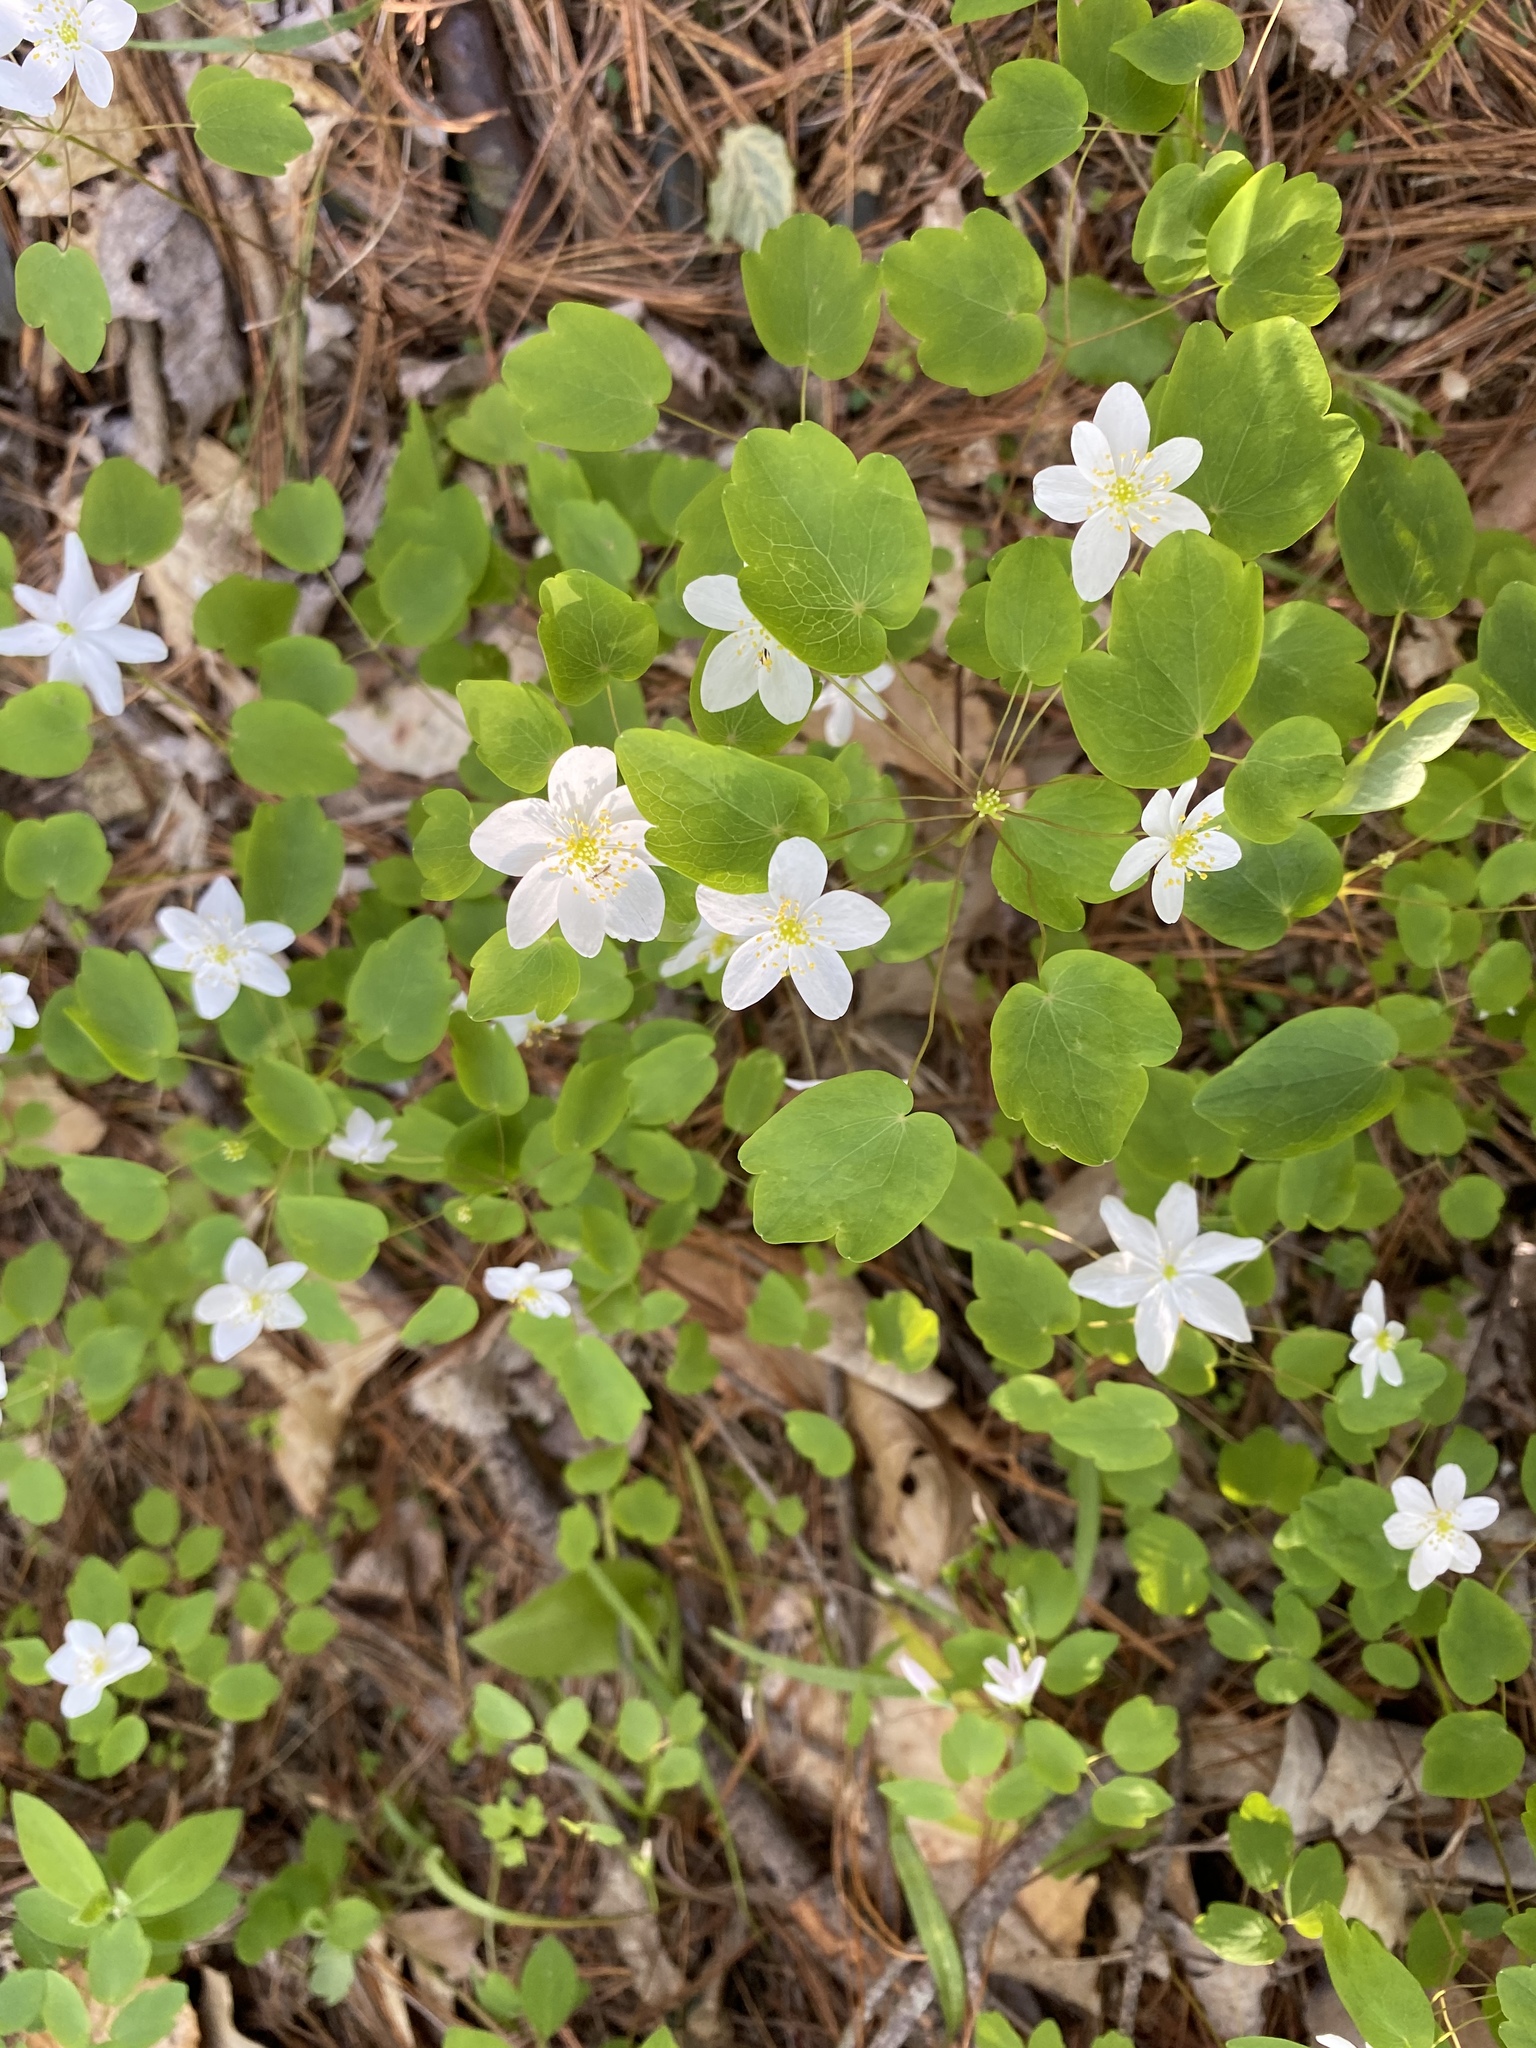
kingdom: Plantae
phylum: Tracheophyta
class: Magnoliopsida
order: Ranunculales
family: Ranunculaceae
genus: Thalictrum
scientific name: Thalictrum thalictroides
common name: Rue-anemone
